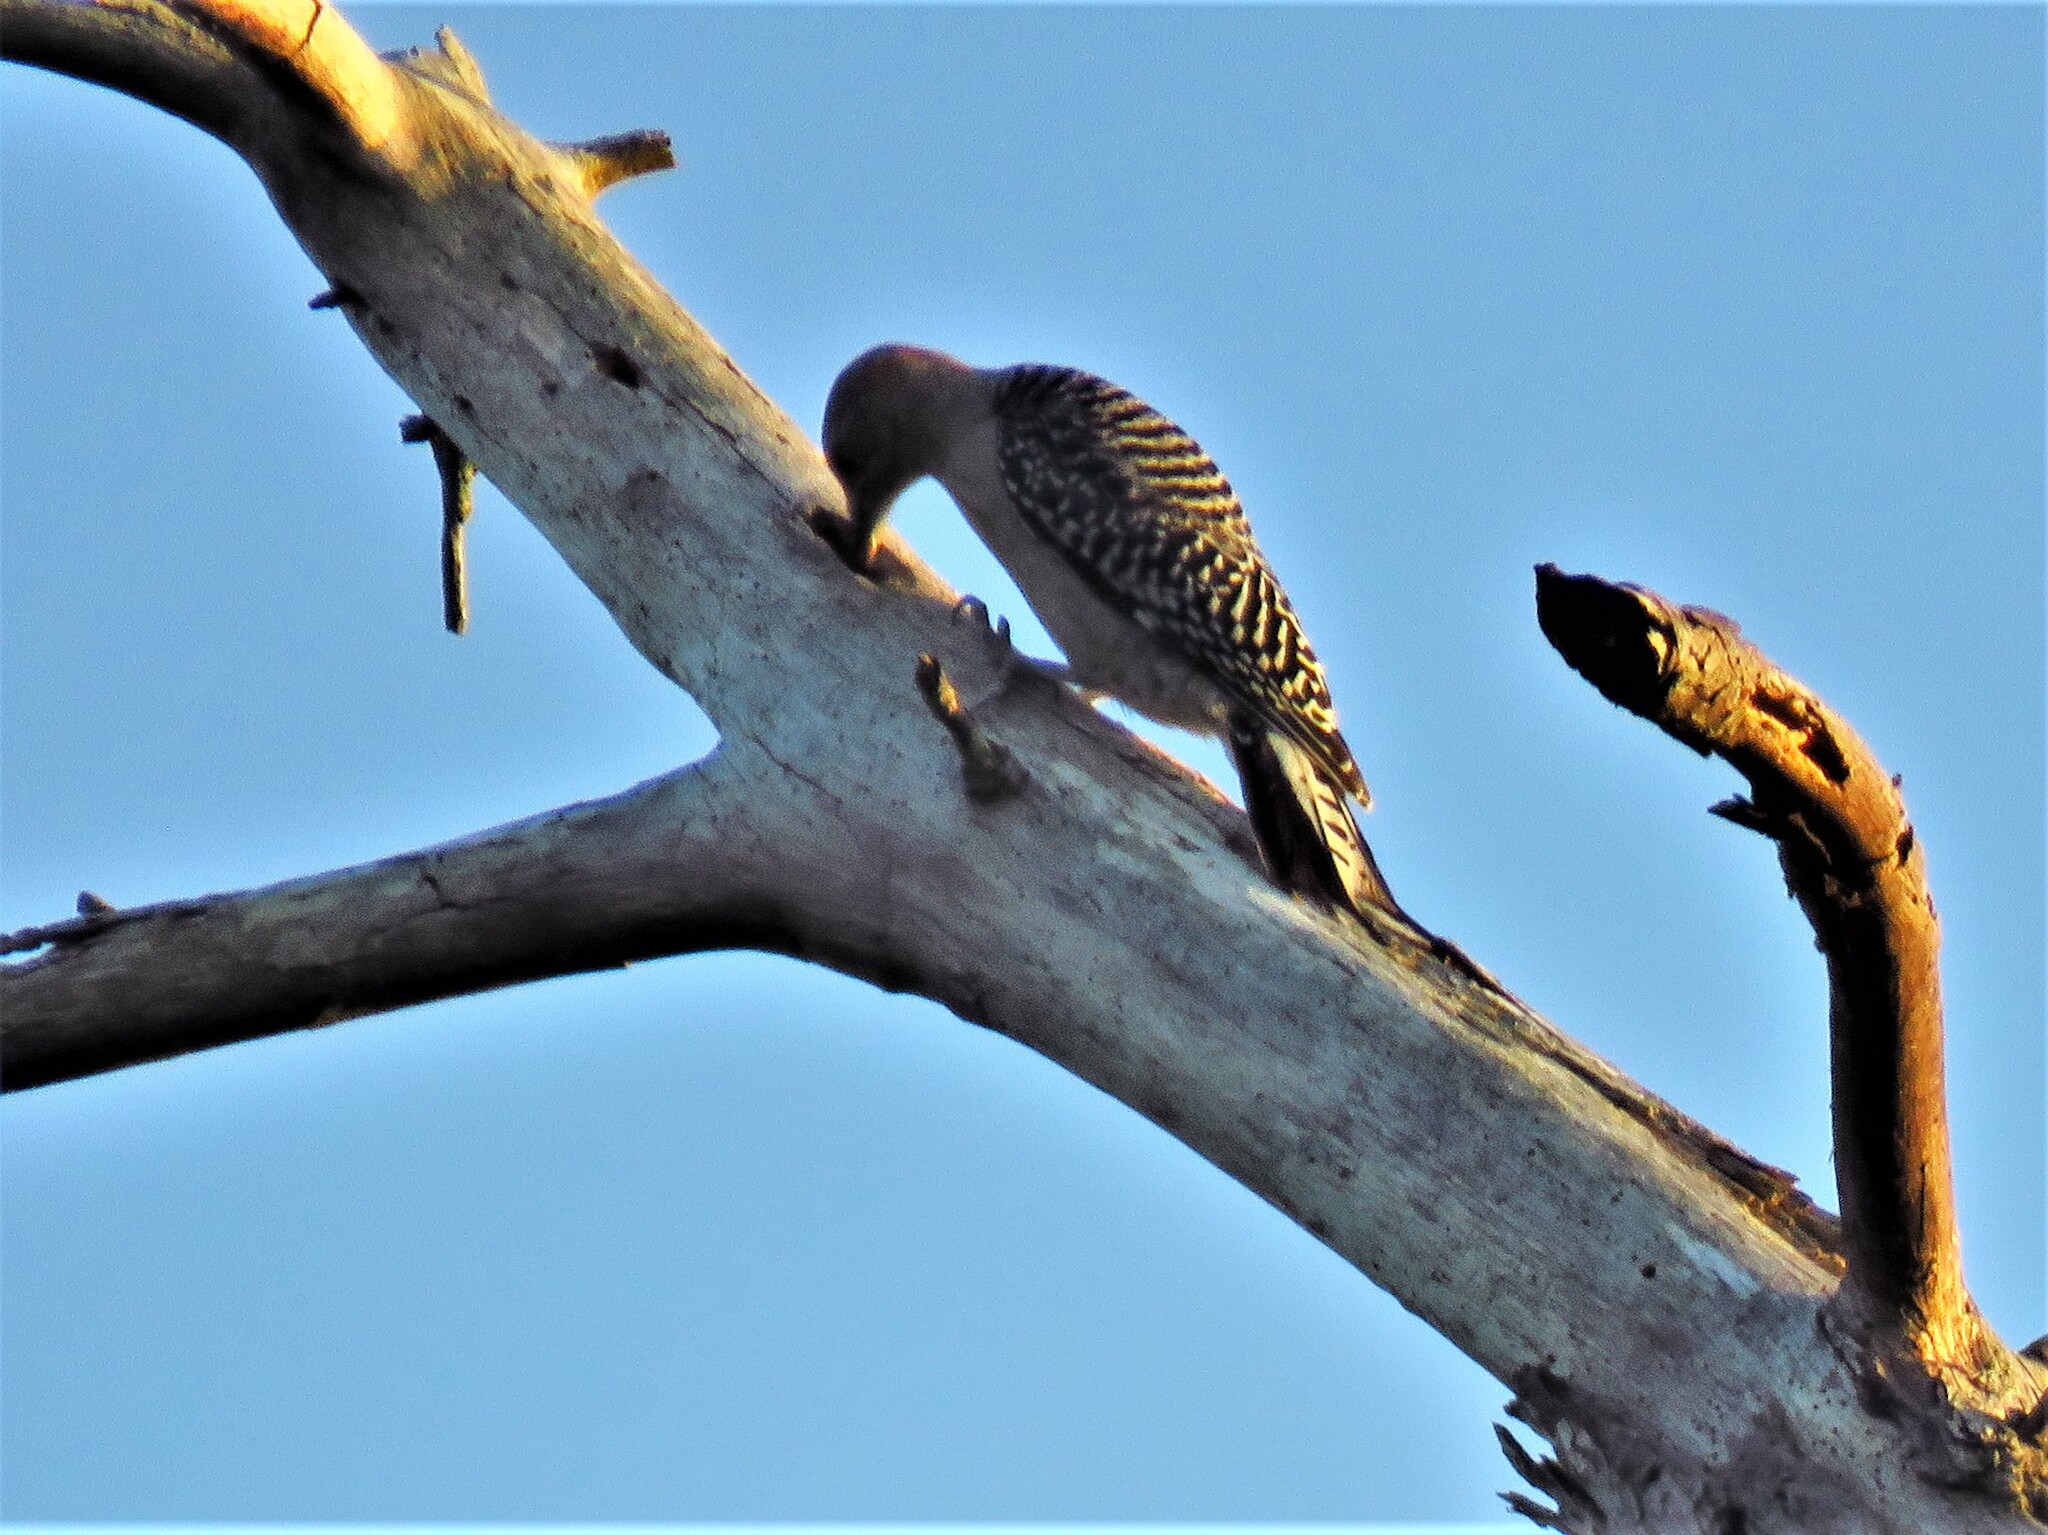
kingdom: Animalia
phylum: Chordata
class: Aves
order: Piciformes
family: Picidae
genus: Melanerpes
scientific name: Melanerpes carolinus
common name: Red-bellied woodpecker
